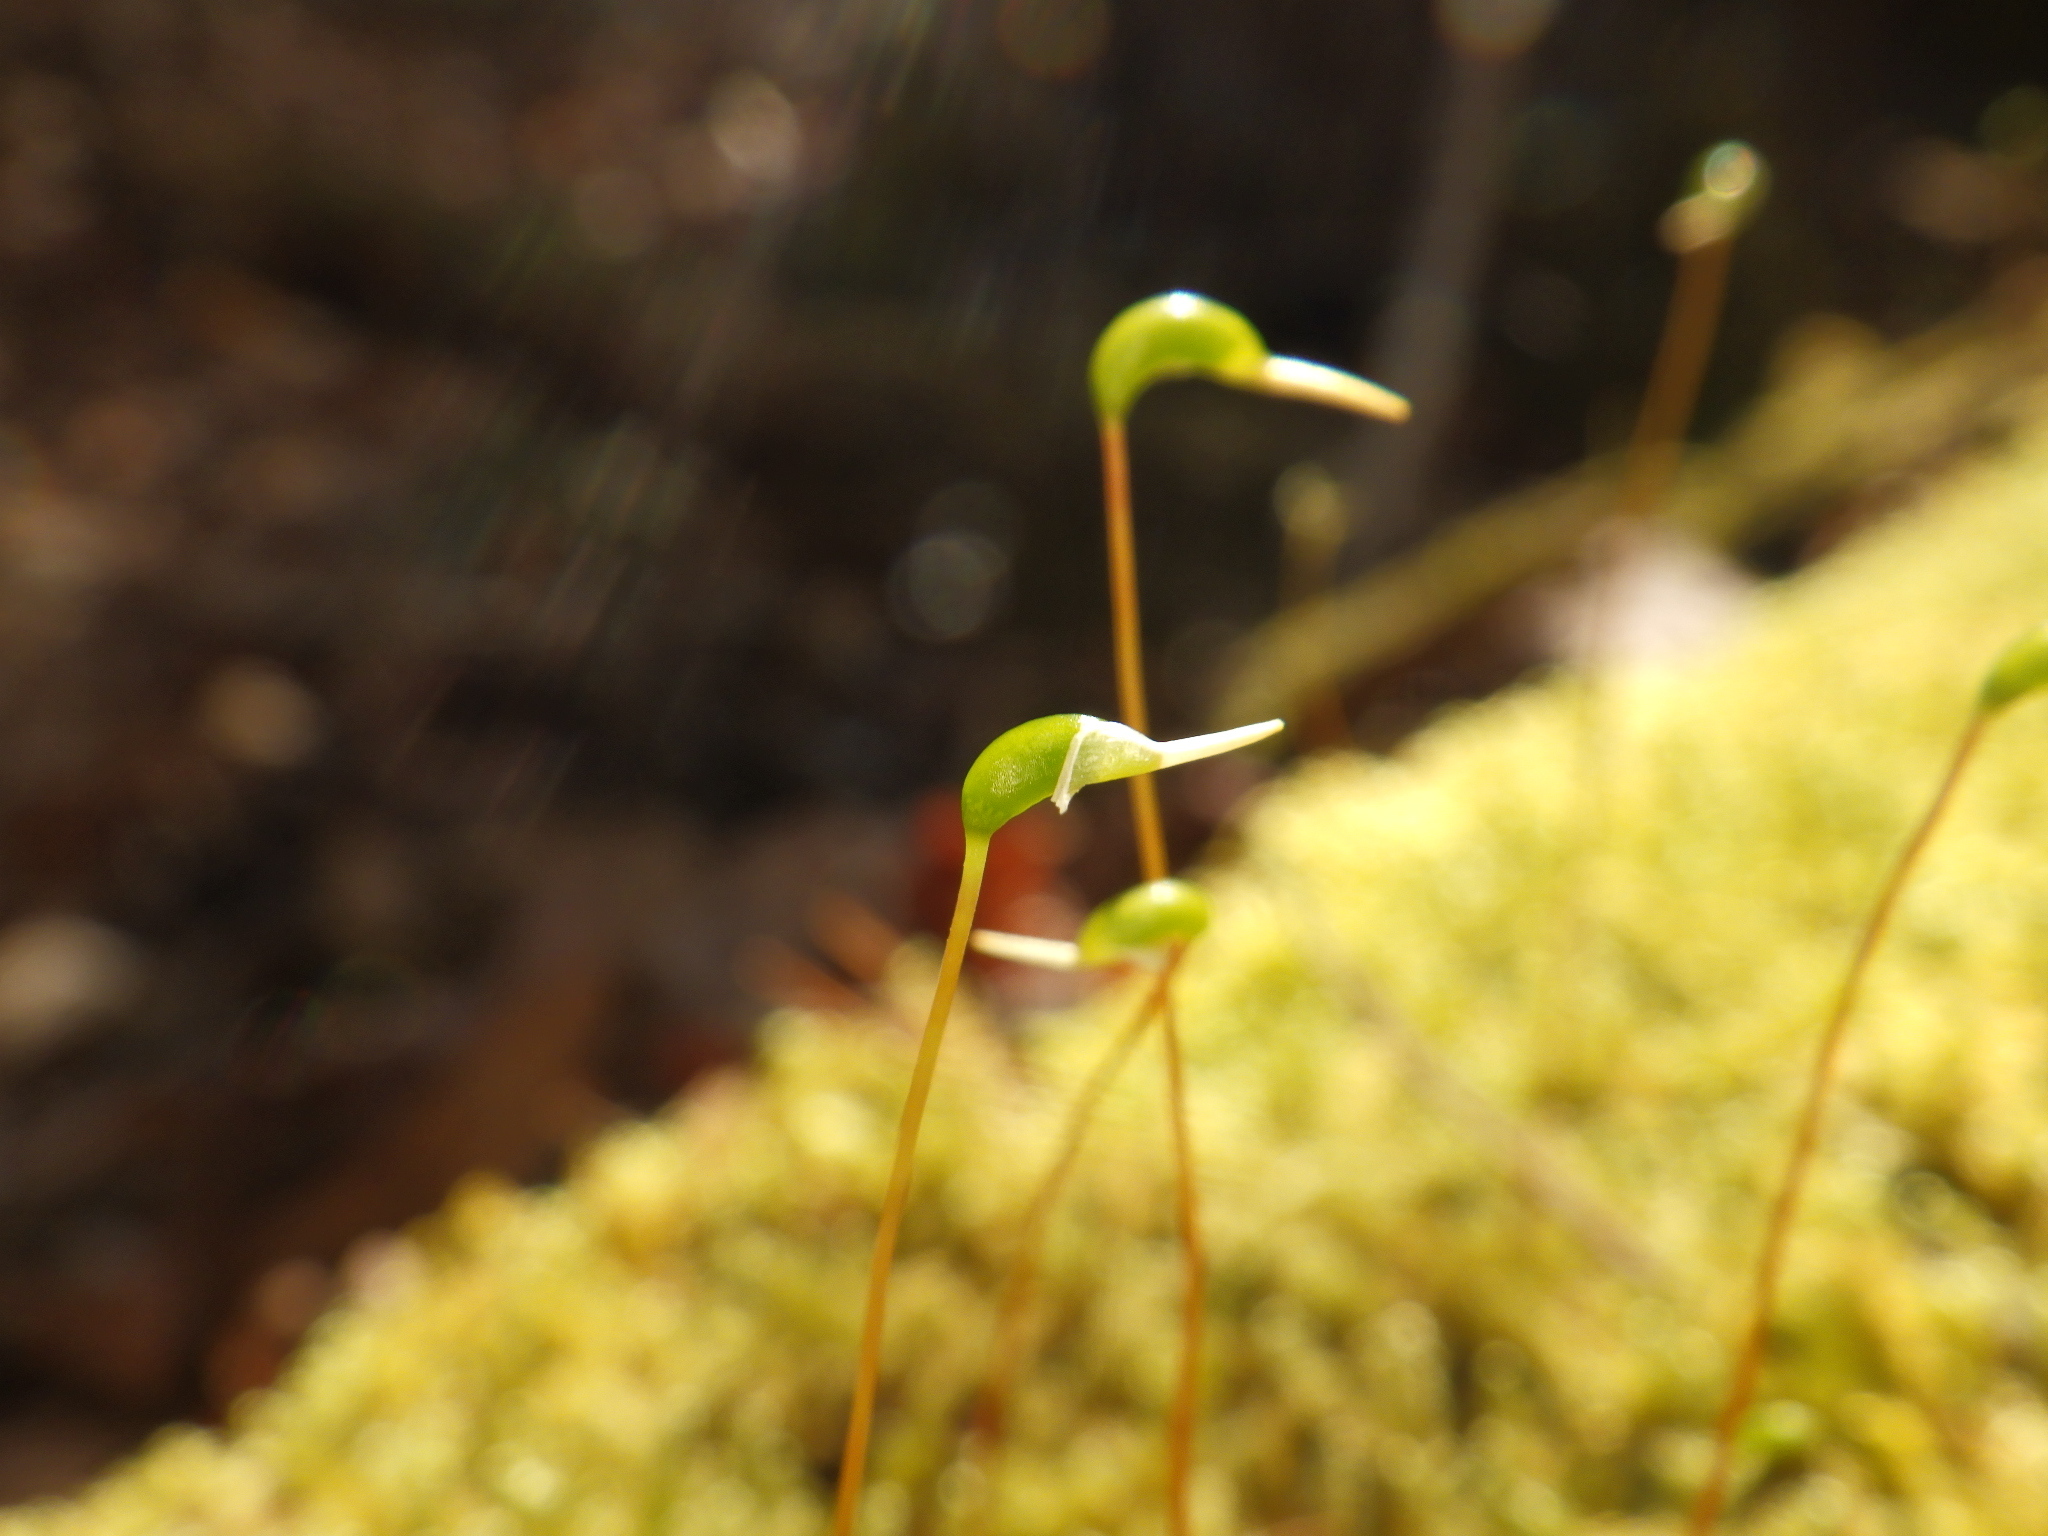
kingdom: Plantae
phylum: Bryophyta
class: Bryopsida
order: Hypnales
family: Pylaisiaceae
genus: Calliergonella
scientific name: Calliergonella curvifolia
